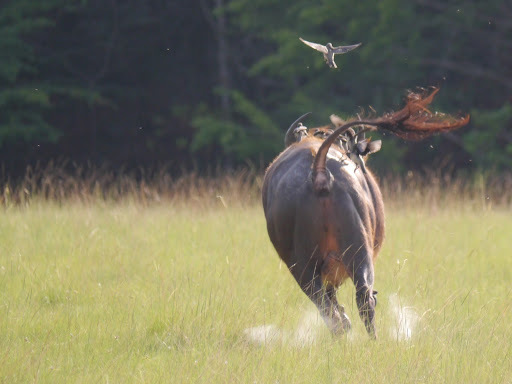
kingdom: Animalia
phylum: Chordata
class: Mammalia
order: Artiodactyla
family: Bovidae
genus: Syncerus
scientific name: Syncerus caffer
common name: African buffalo
